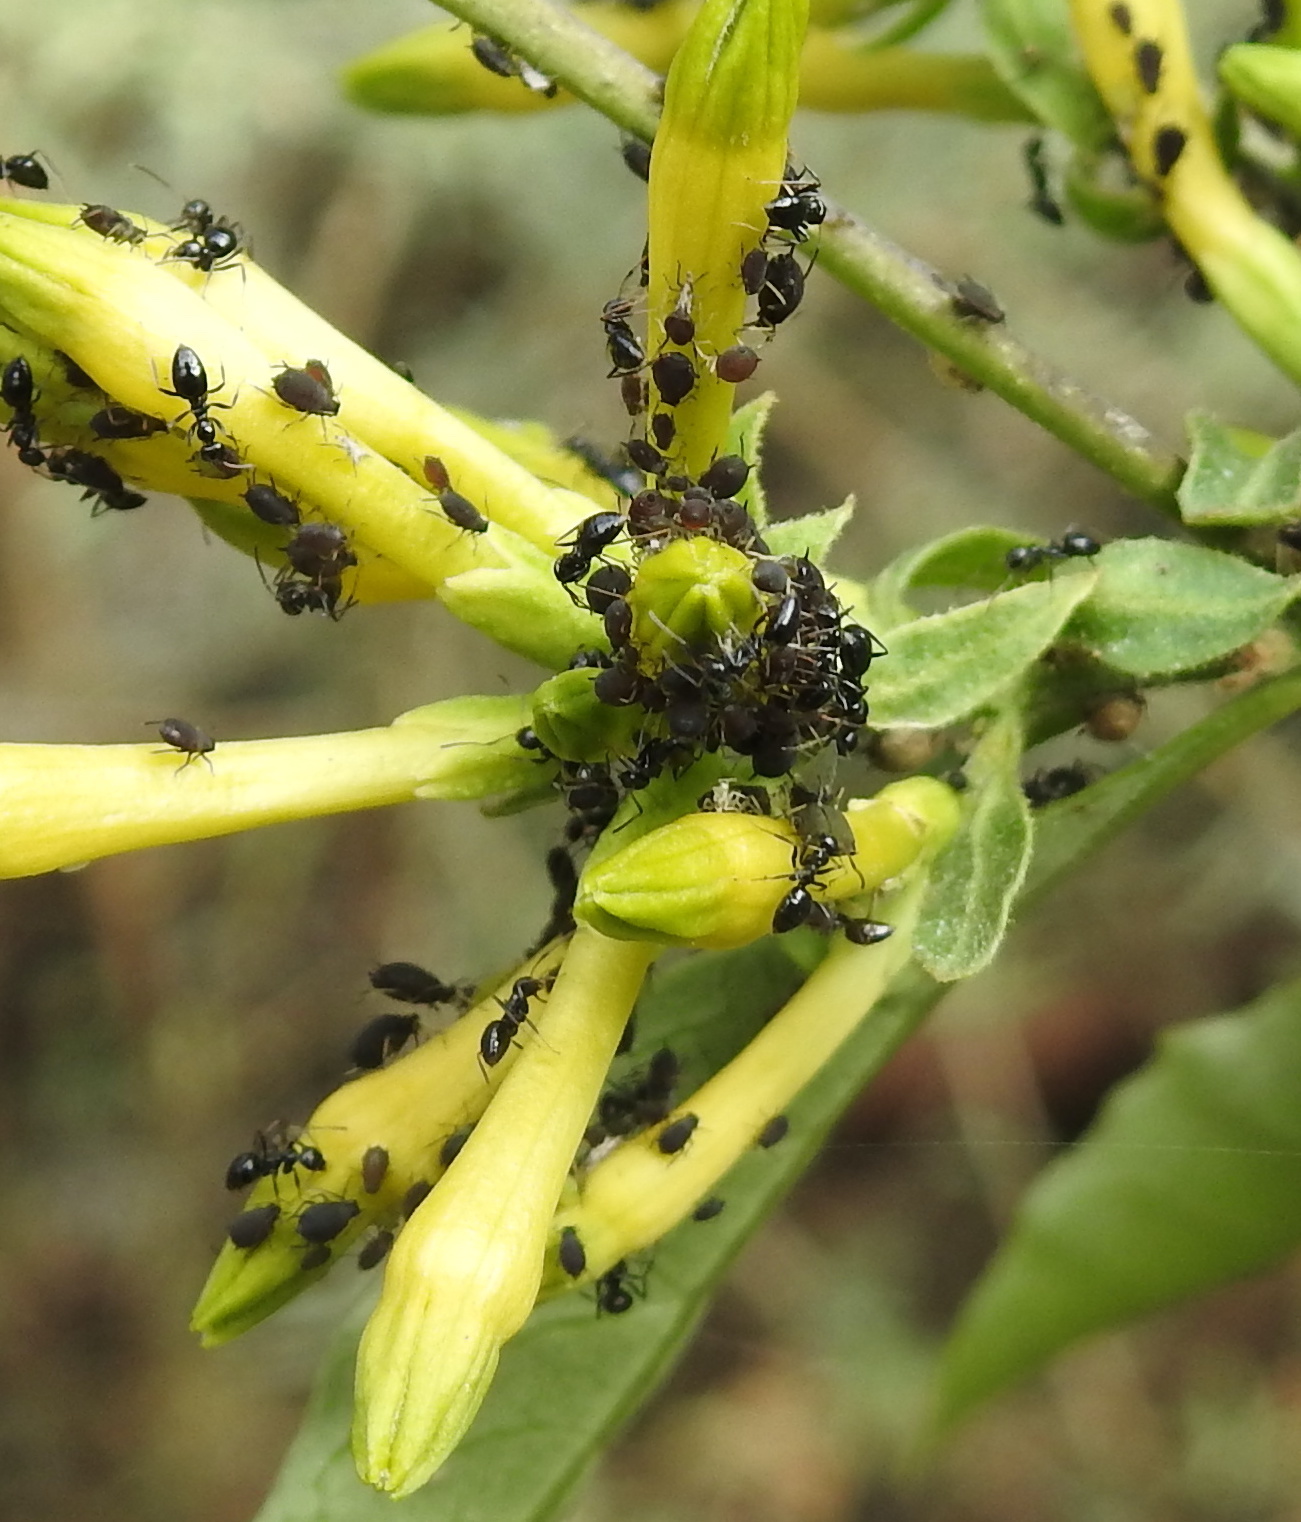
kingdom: Animalia
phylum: Arthropoda
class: Insecta
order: Hymenoptera
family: Formicidae
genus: Lepisiota
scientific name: Lepisiota incisa
